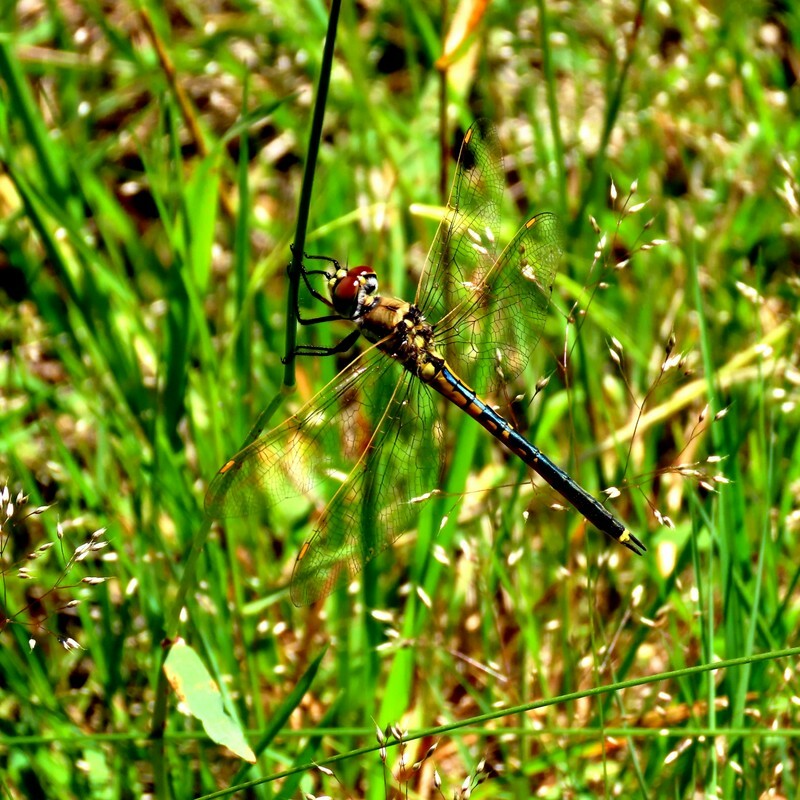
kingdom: Animalia
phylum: Arthropoda
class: Insecta
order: Odonata
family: Corduliidae
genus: Hemicordulia
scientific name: Hemicordulia tau
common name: Tau emerald
